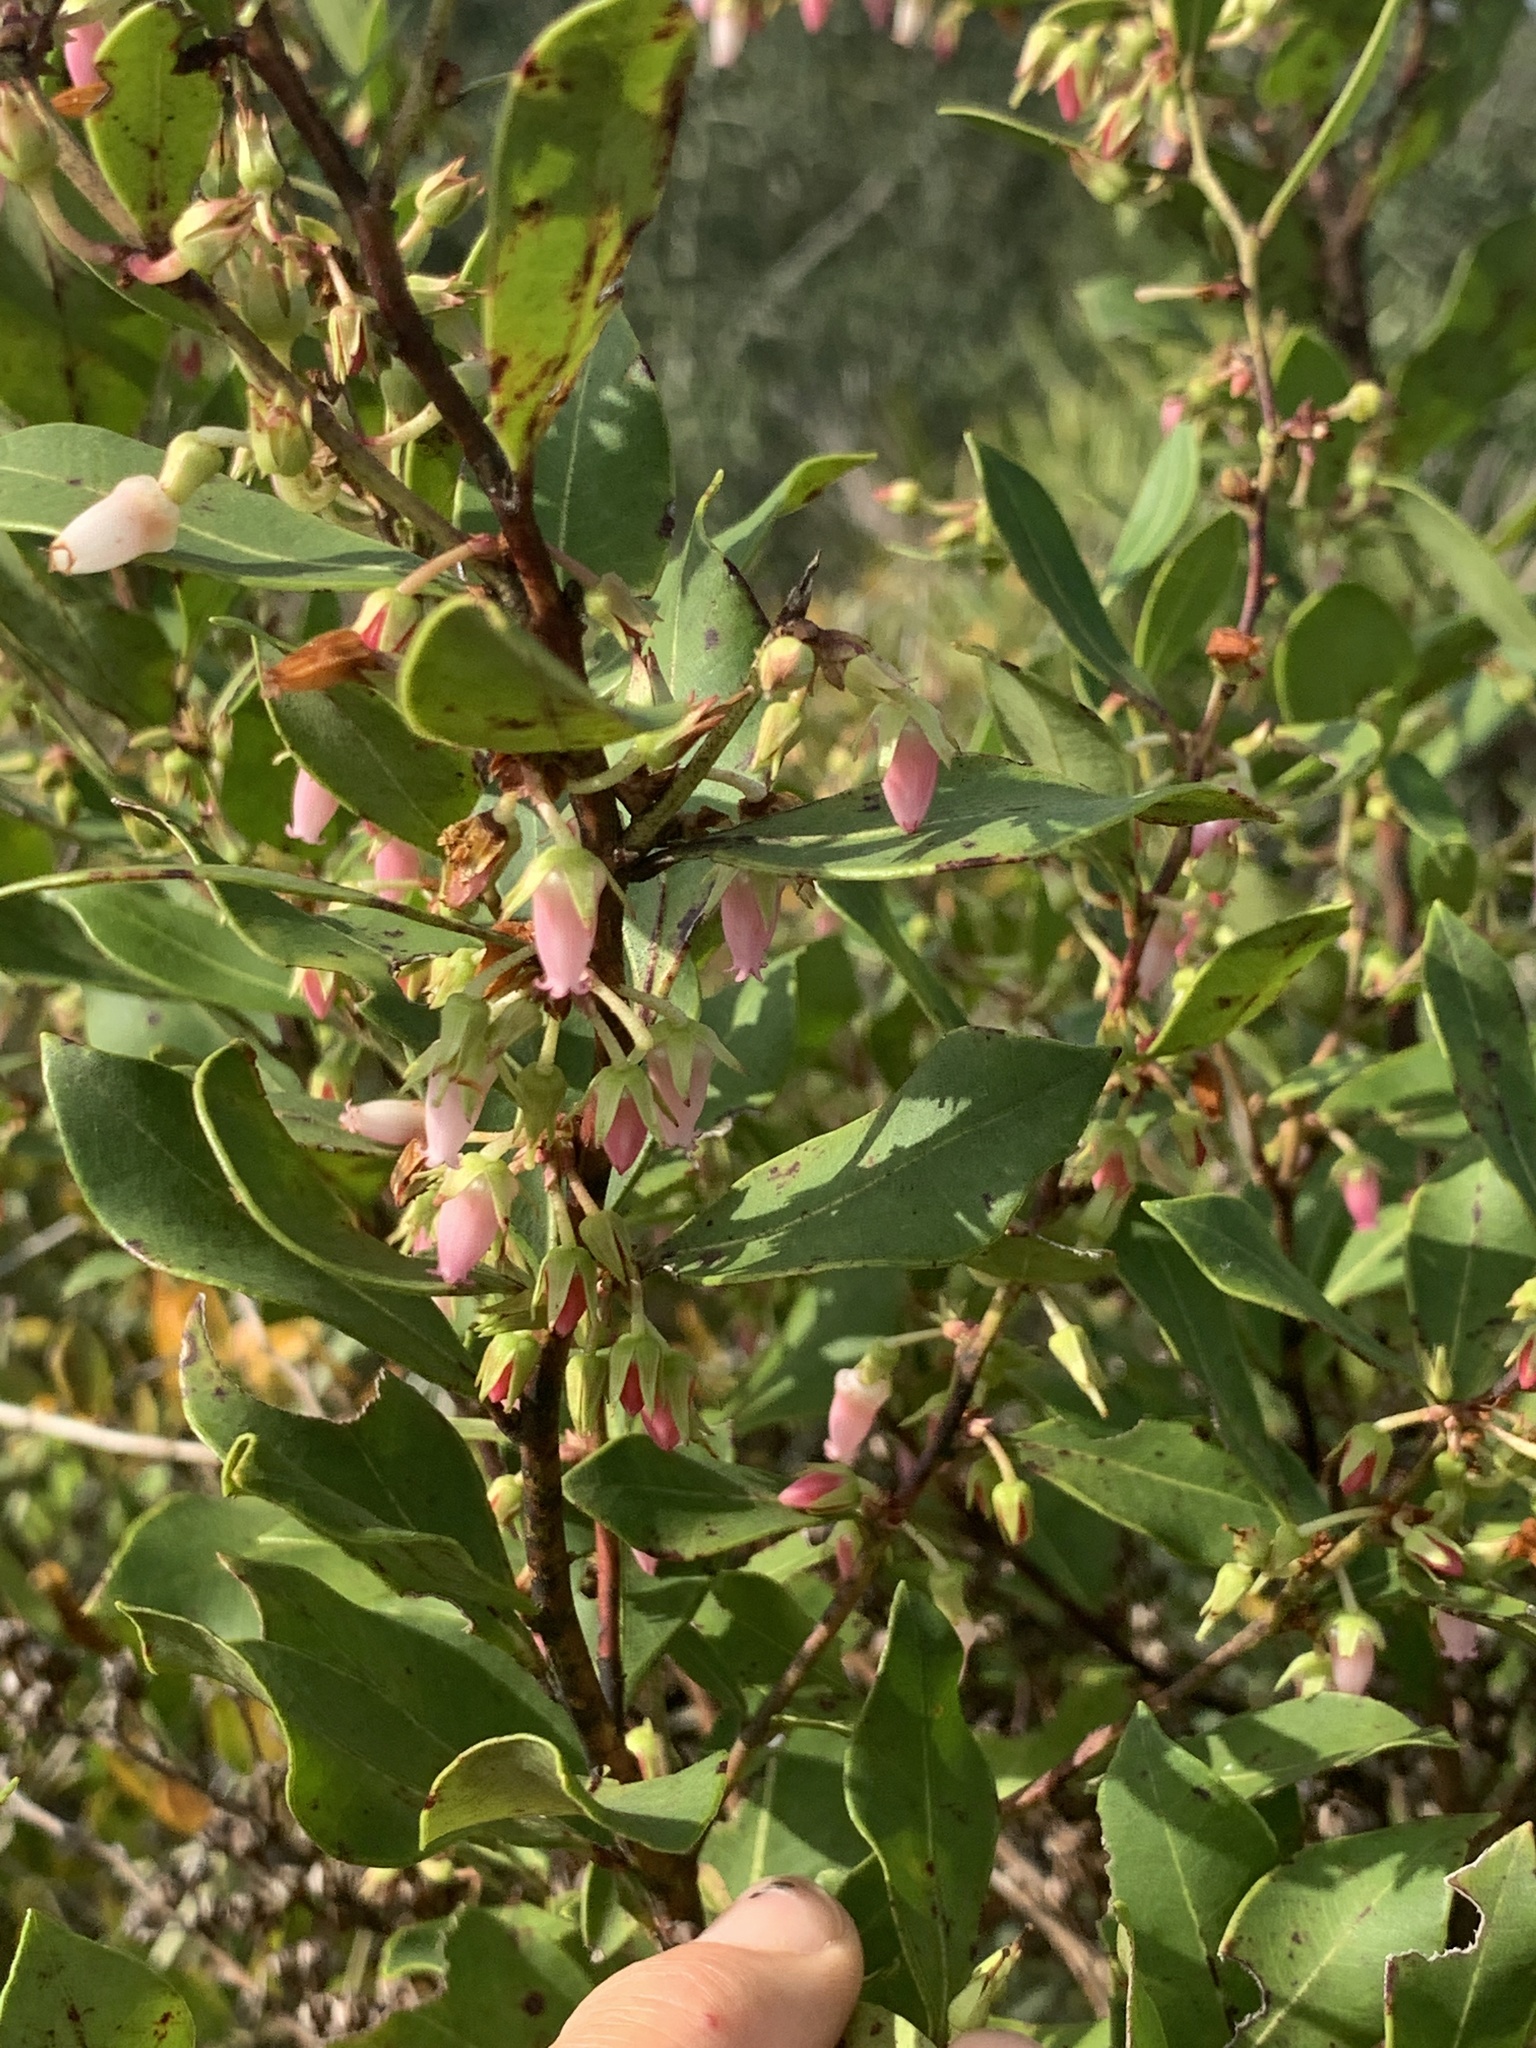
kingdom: Plantae
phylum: Tracheophyta
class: Magnoliopsida
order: Ericales
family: Ericaceae
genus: Lyonia
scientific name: Lyonia lucida
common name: Fetterbush
